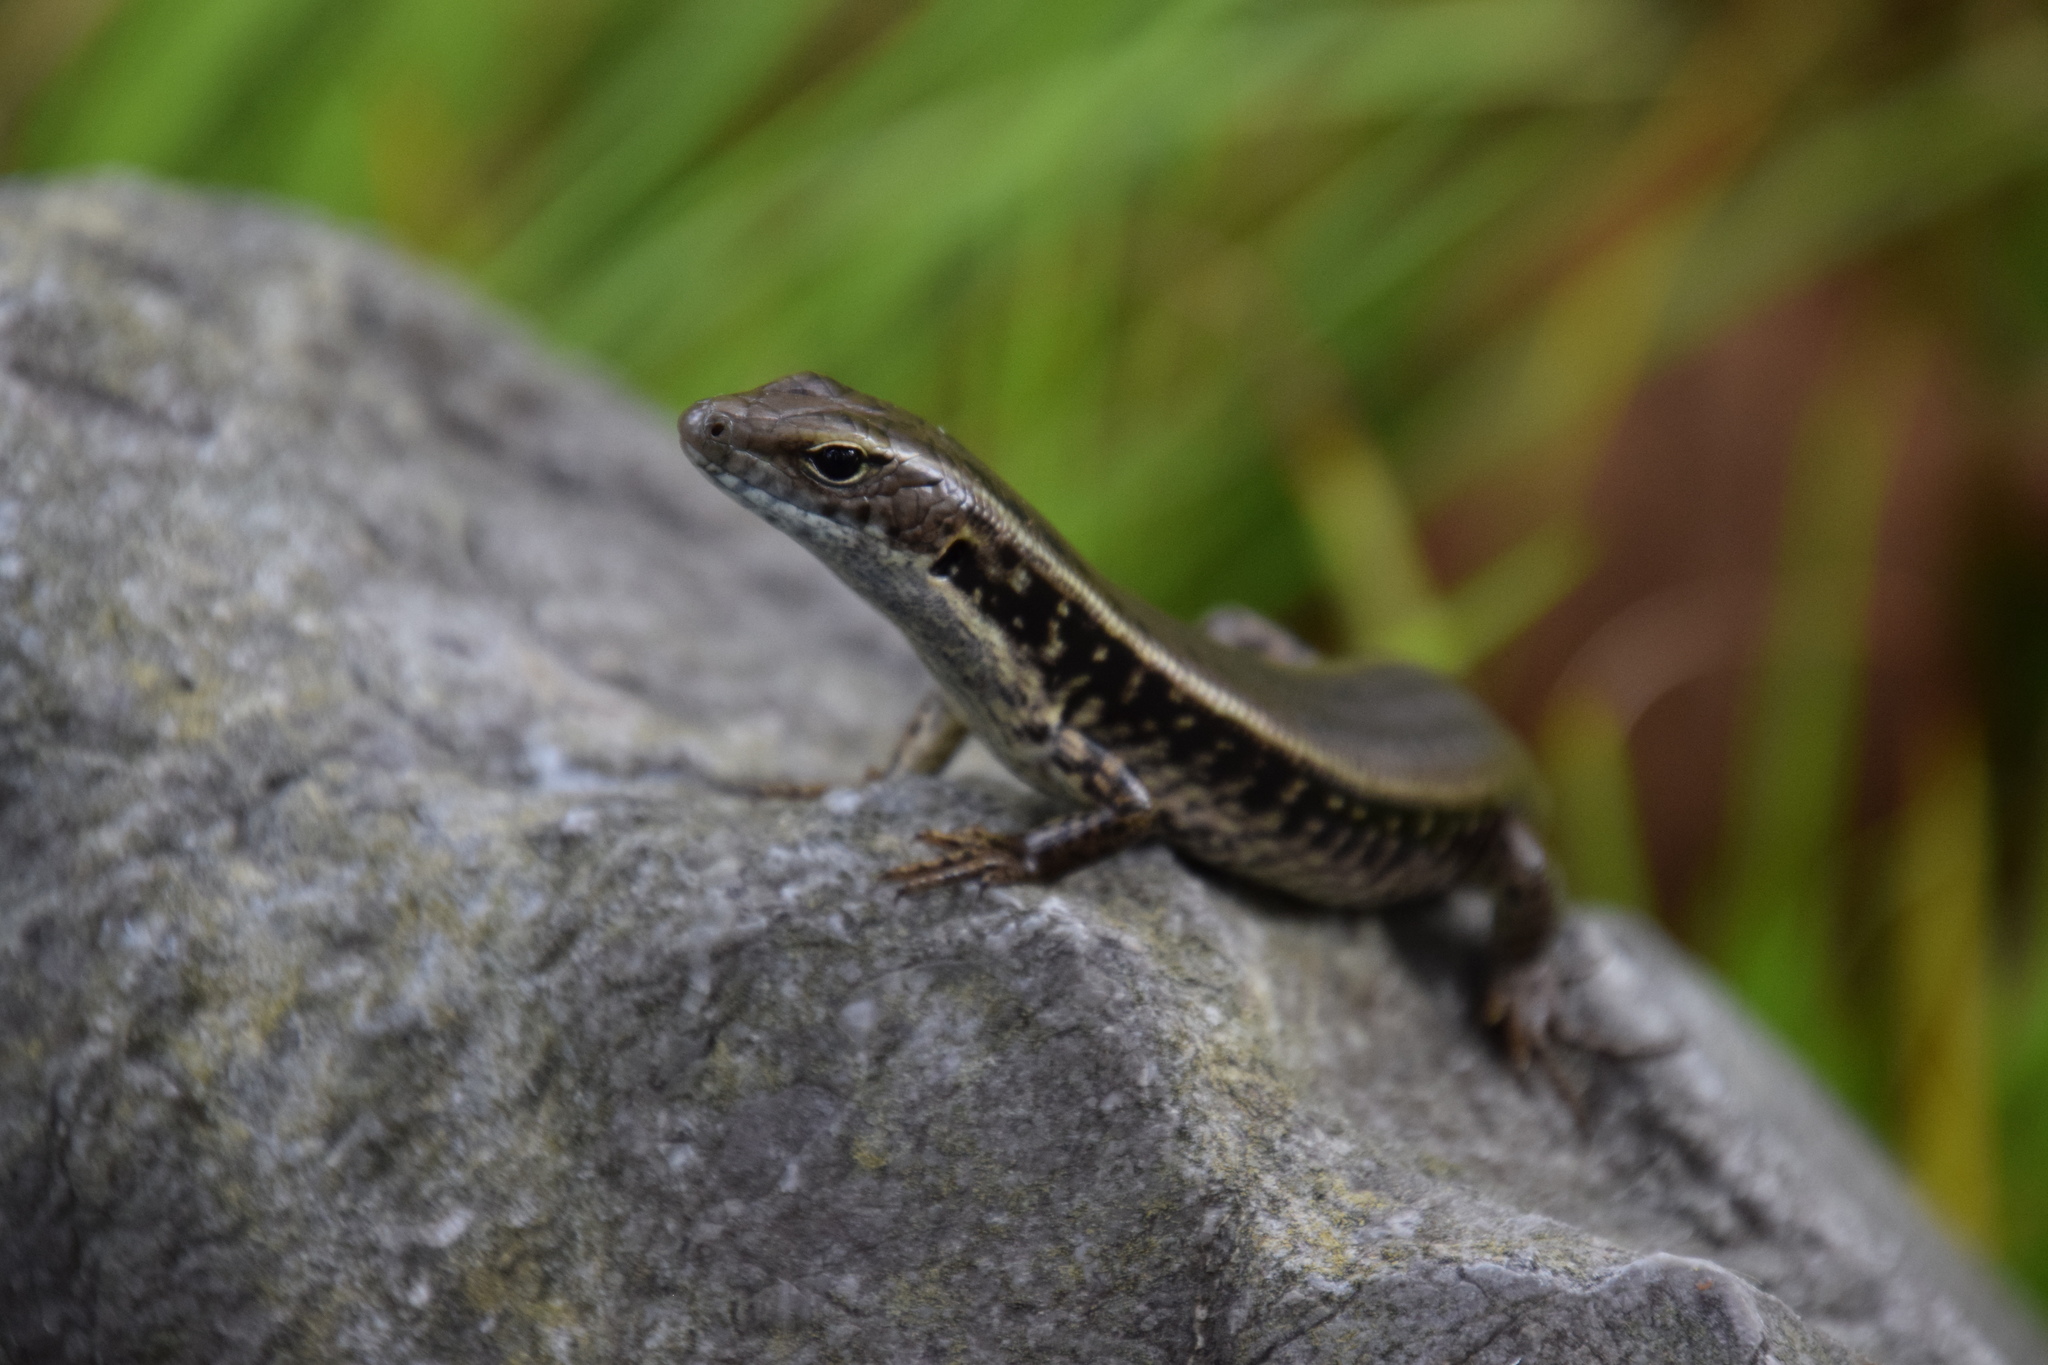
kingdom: Animalia
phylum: Chordata
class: Squamata
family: Scincidae
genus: Eulamprus
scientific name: Eulamprus quoyii
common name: Eastern water skink
